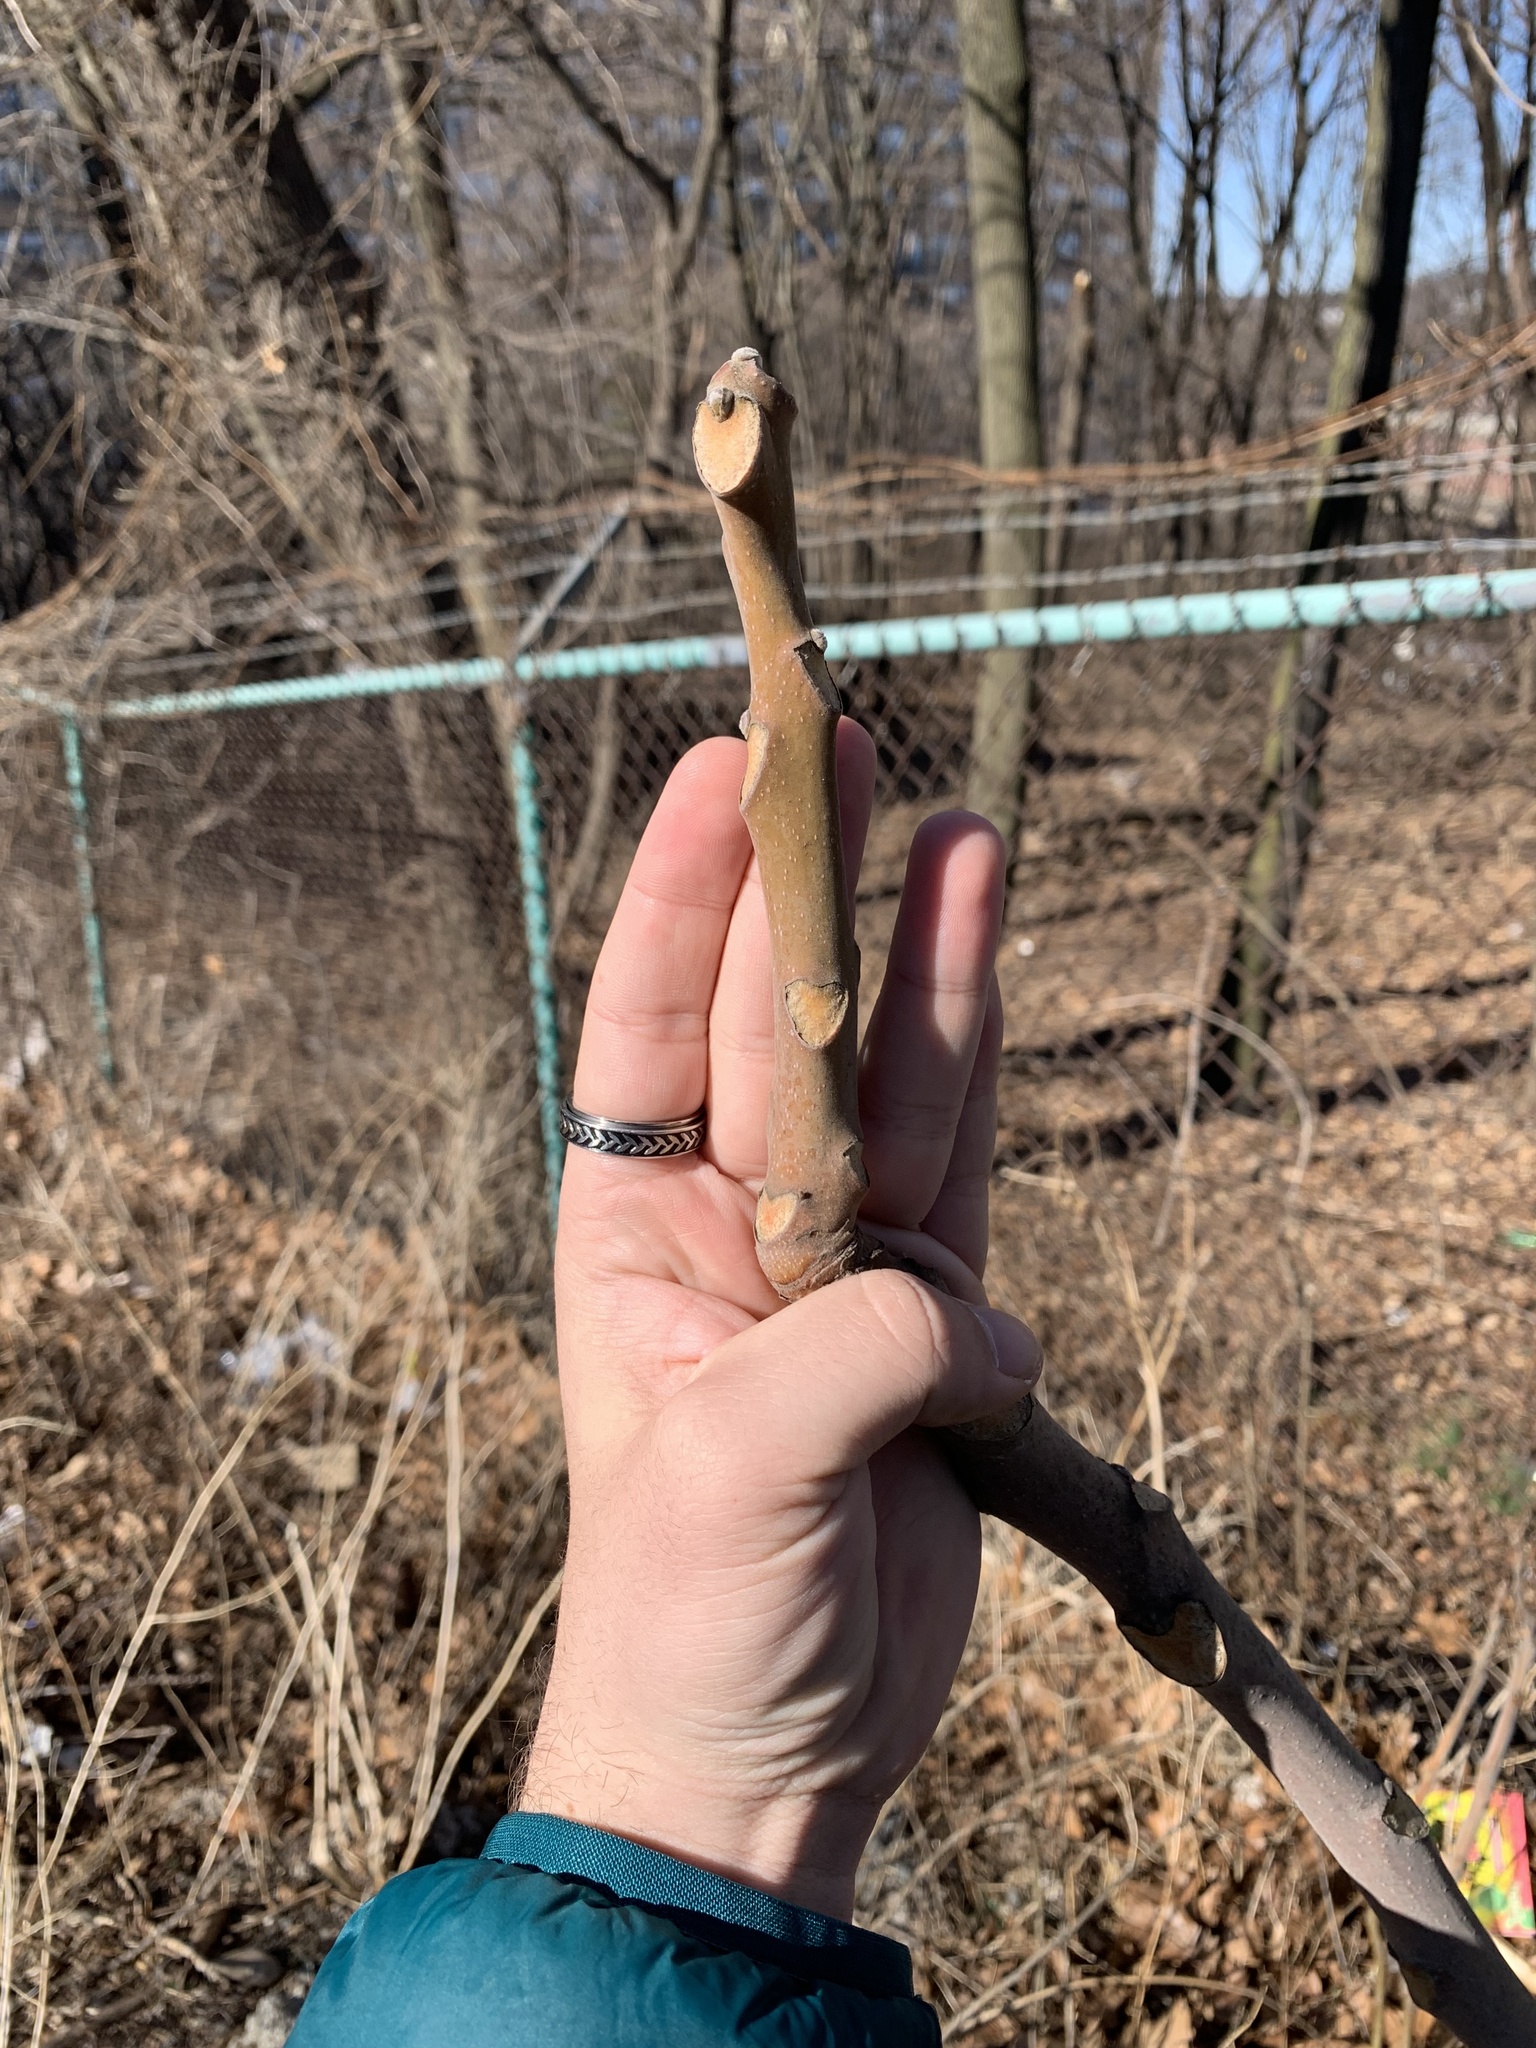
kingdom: Plantae
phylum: Tracheophyta
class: Magnoliopsida
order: Sapindales
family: Simaroubaceae
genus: Ailanthus
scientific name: Ailanthus altissima
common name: Tree-of-heaven
